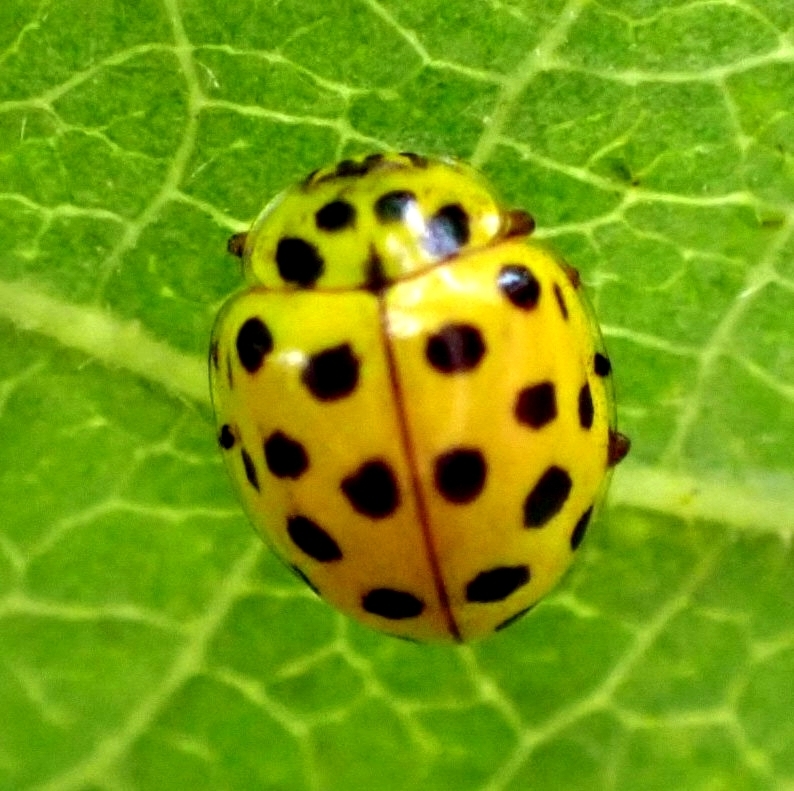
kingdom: Animalia
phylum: Arthropoda
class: Insecta
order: Coleoptera
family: Coccinellidae
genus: Psyllobora
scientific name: Psyllobora vigintiduopunctata
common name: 22-spot ladybird
